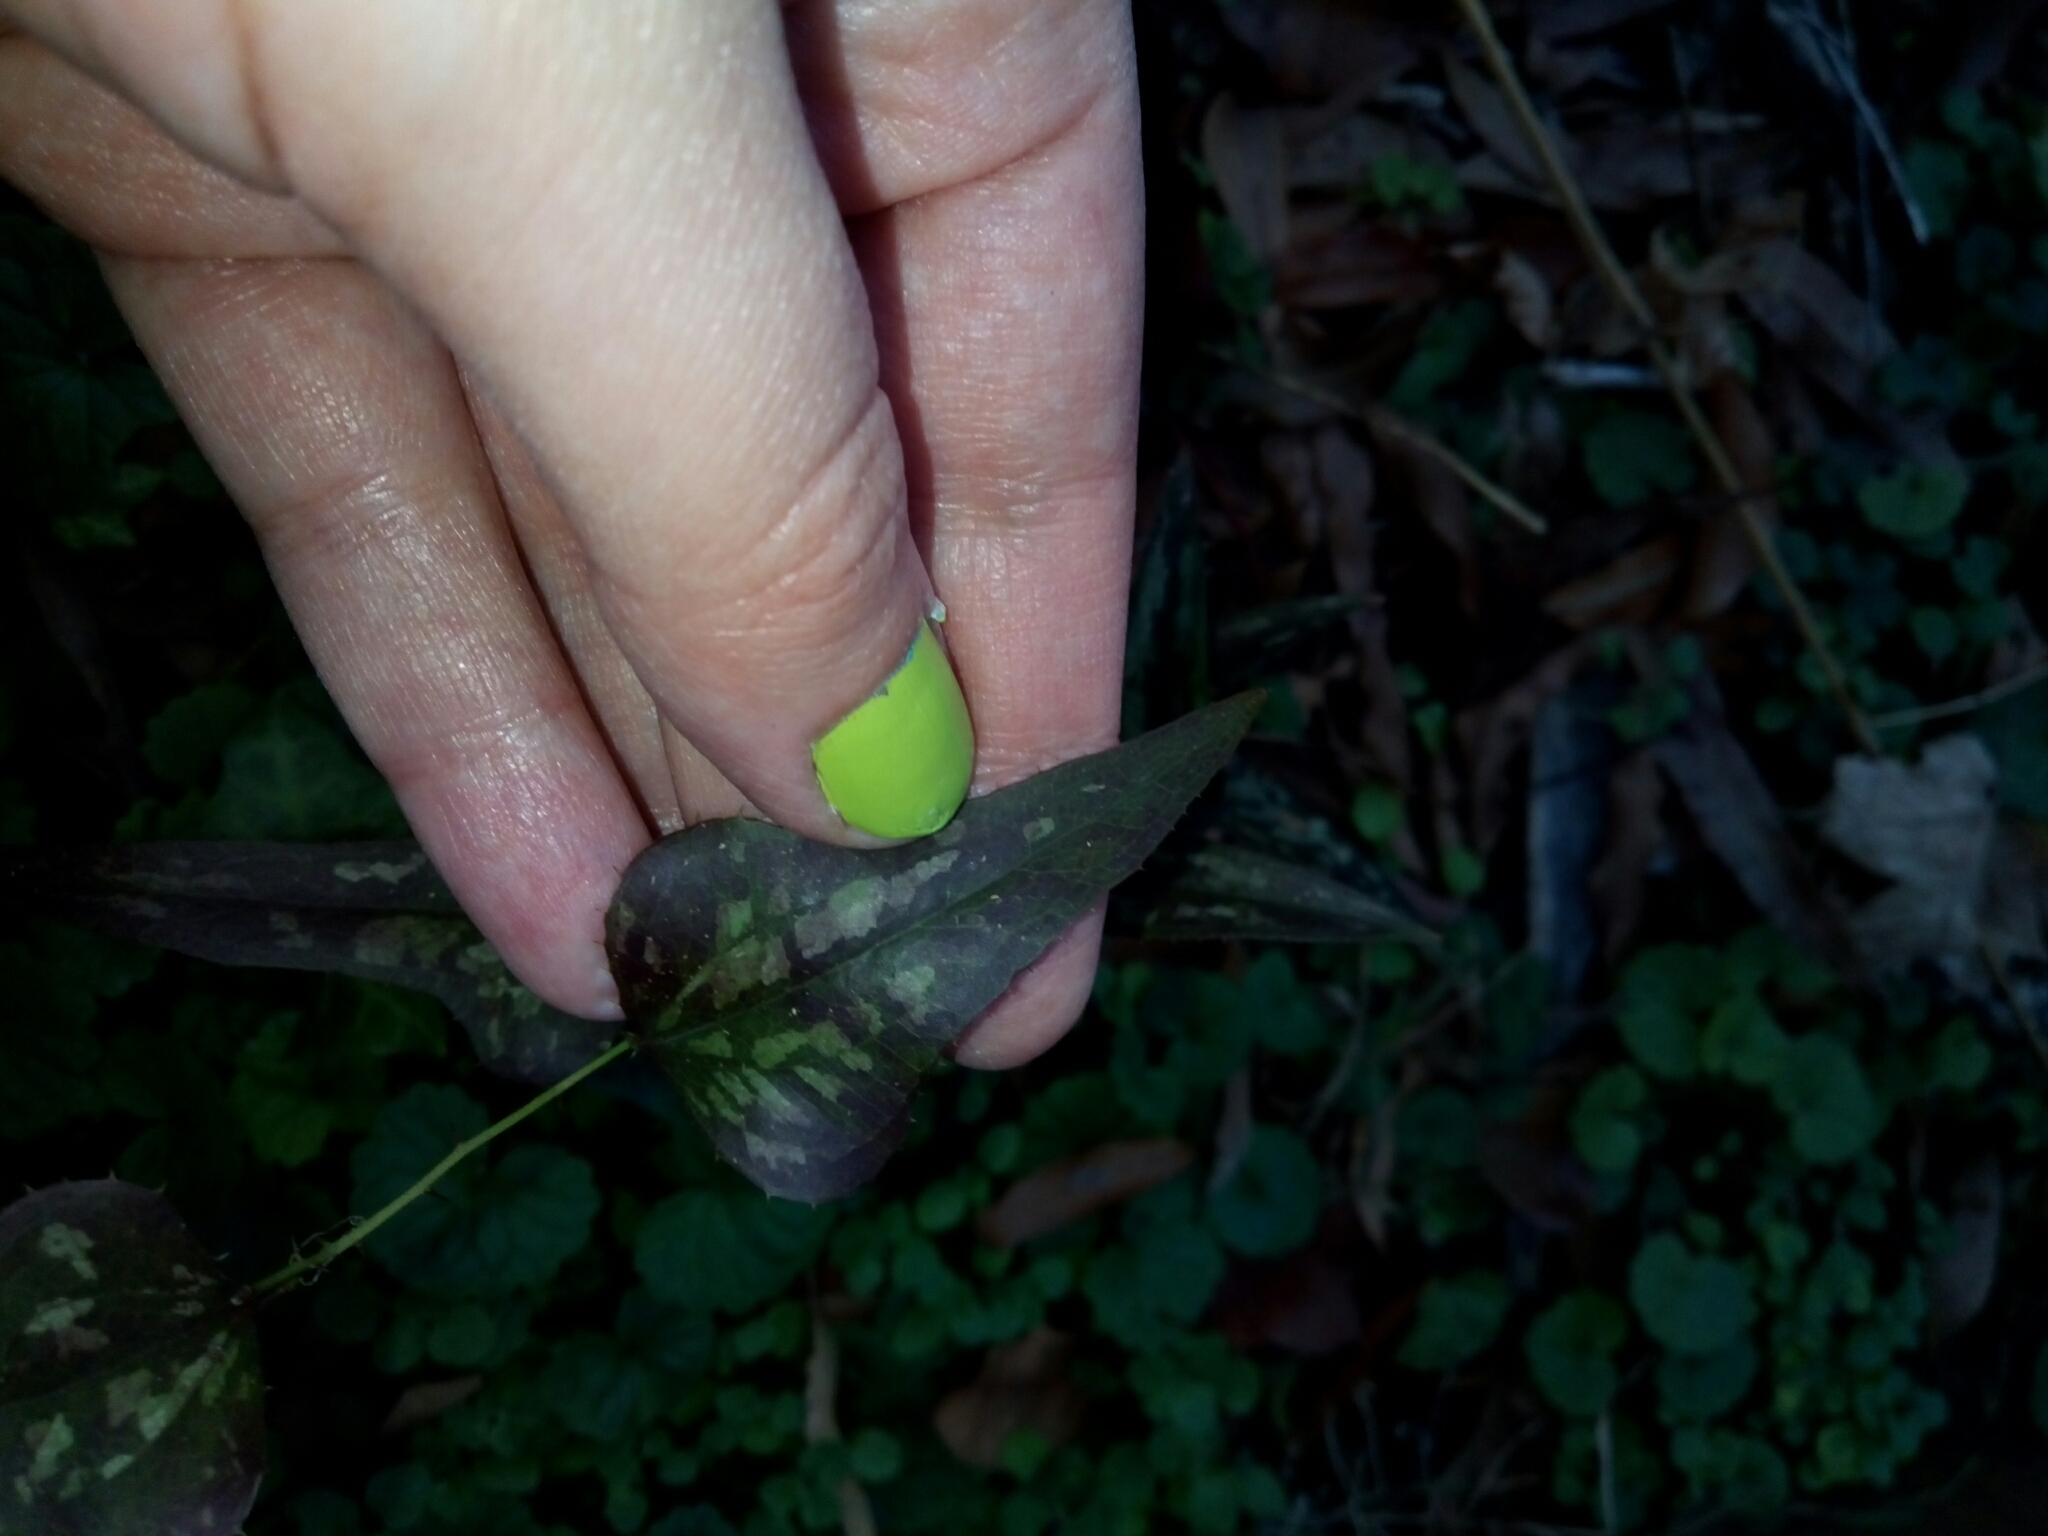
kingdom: Plantae
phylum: Tracheophyta
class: Liliopsida
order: Liliales
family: Smilacaceae
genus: Smilax
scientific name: Smilax bona-nox
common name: Catbrier
